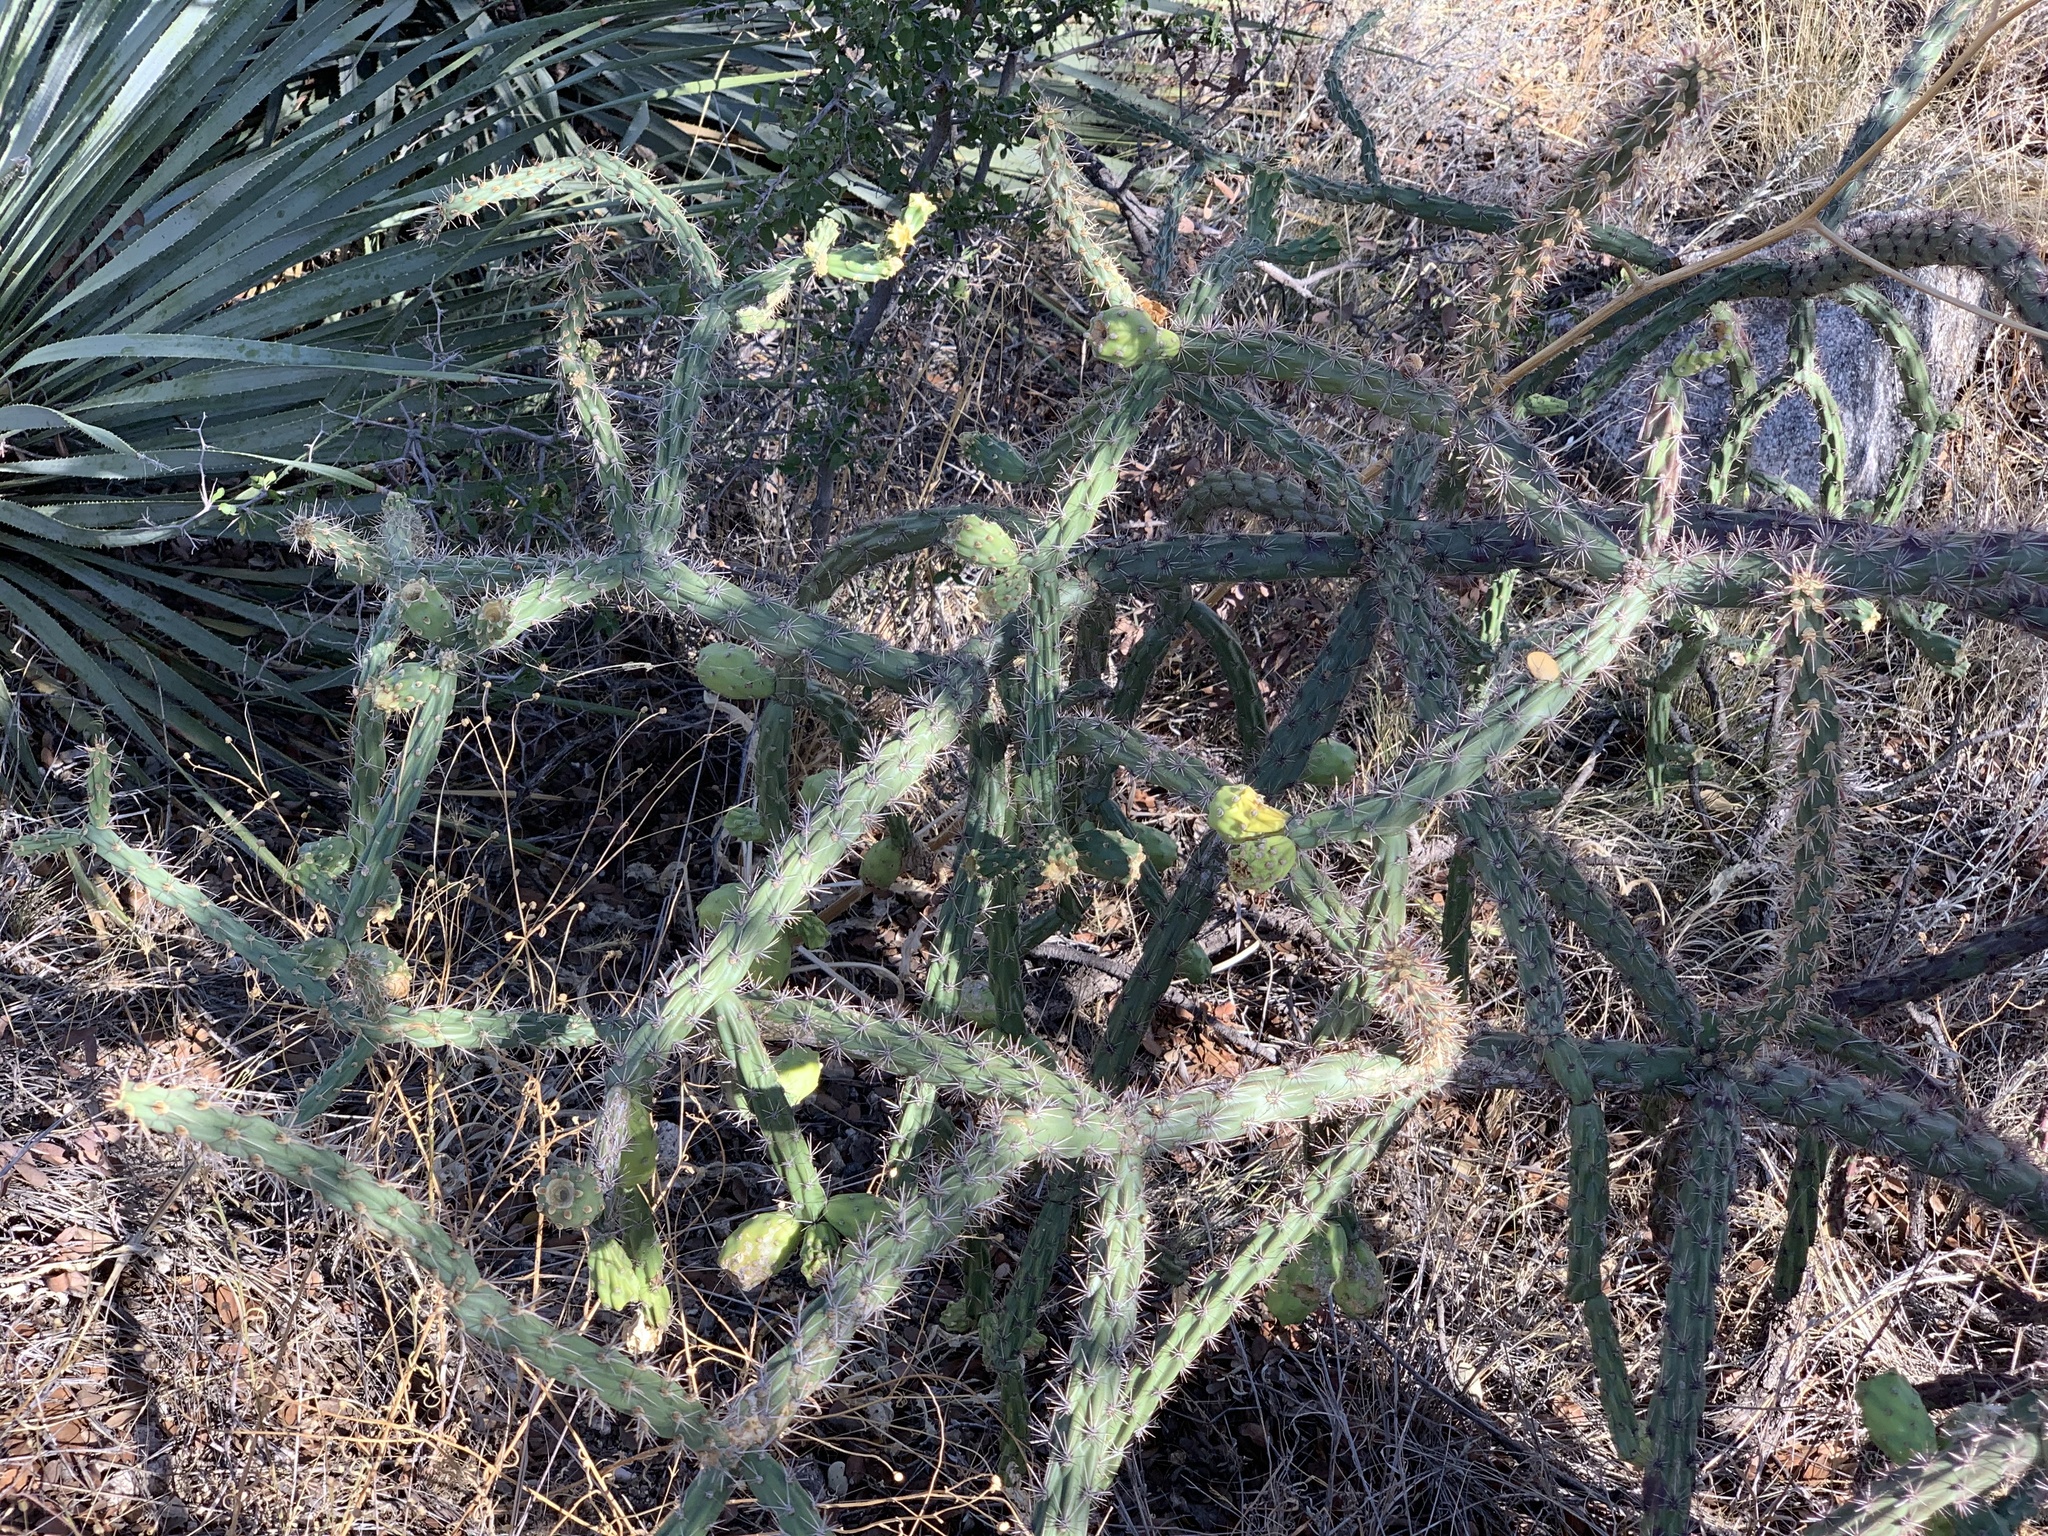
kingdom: Plantae
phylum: Tracheophyta
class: Magnoliopsida
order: Caryophyllales
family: Cactaceae
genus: Cylindropuntia
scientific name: Cylindropuntia thurberi
